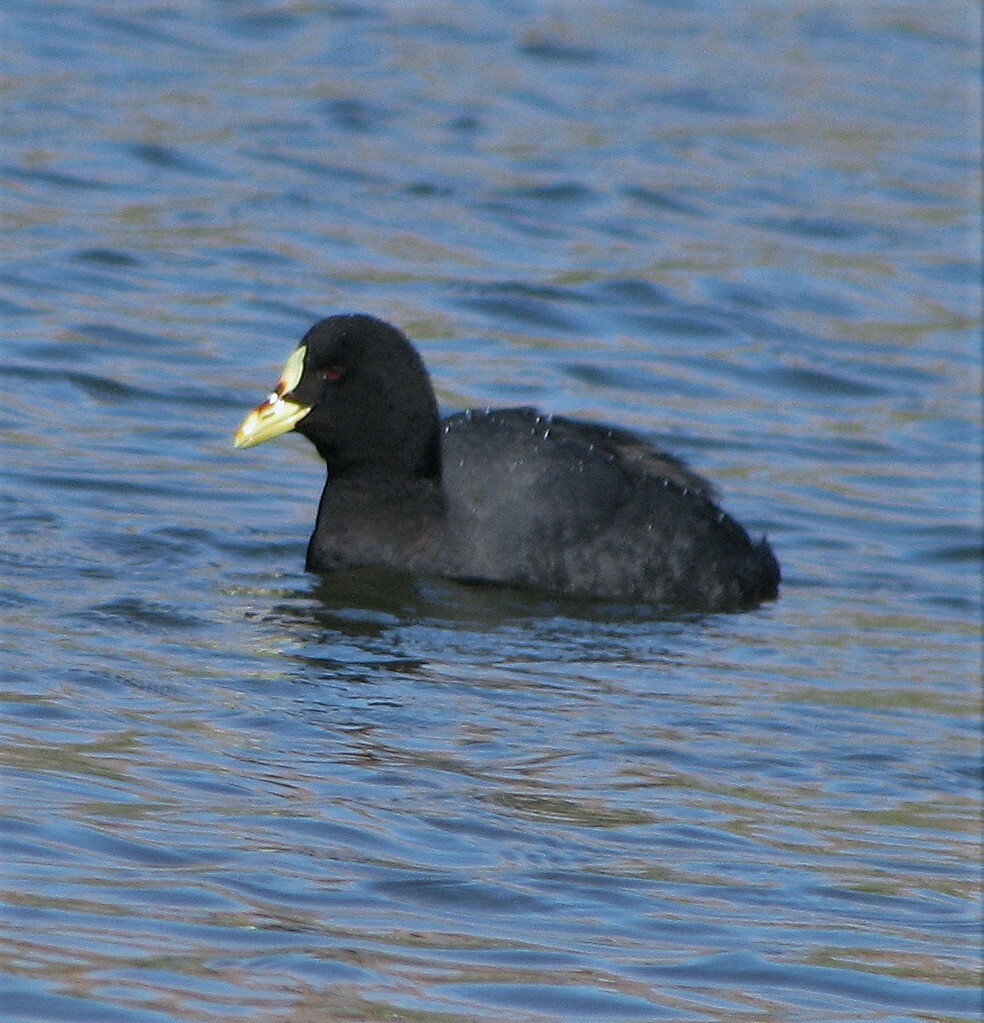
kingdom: Animalia
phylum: Chordata
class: Aves
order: Gruiformes
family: Rallidae
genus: Fulica
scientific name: Fulica armillata
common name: Red-gartered coot
